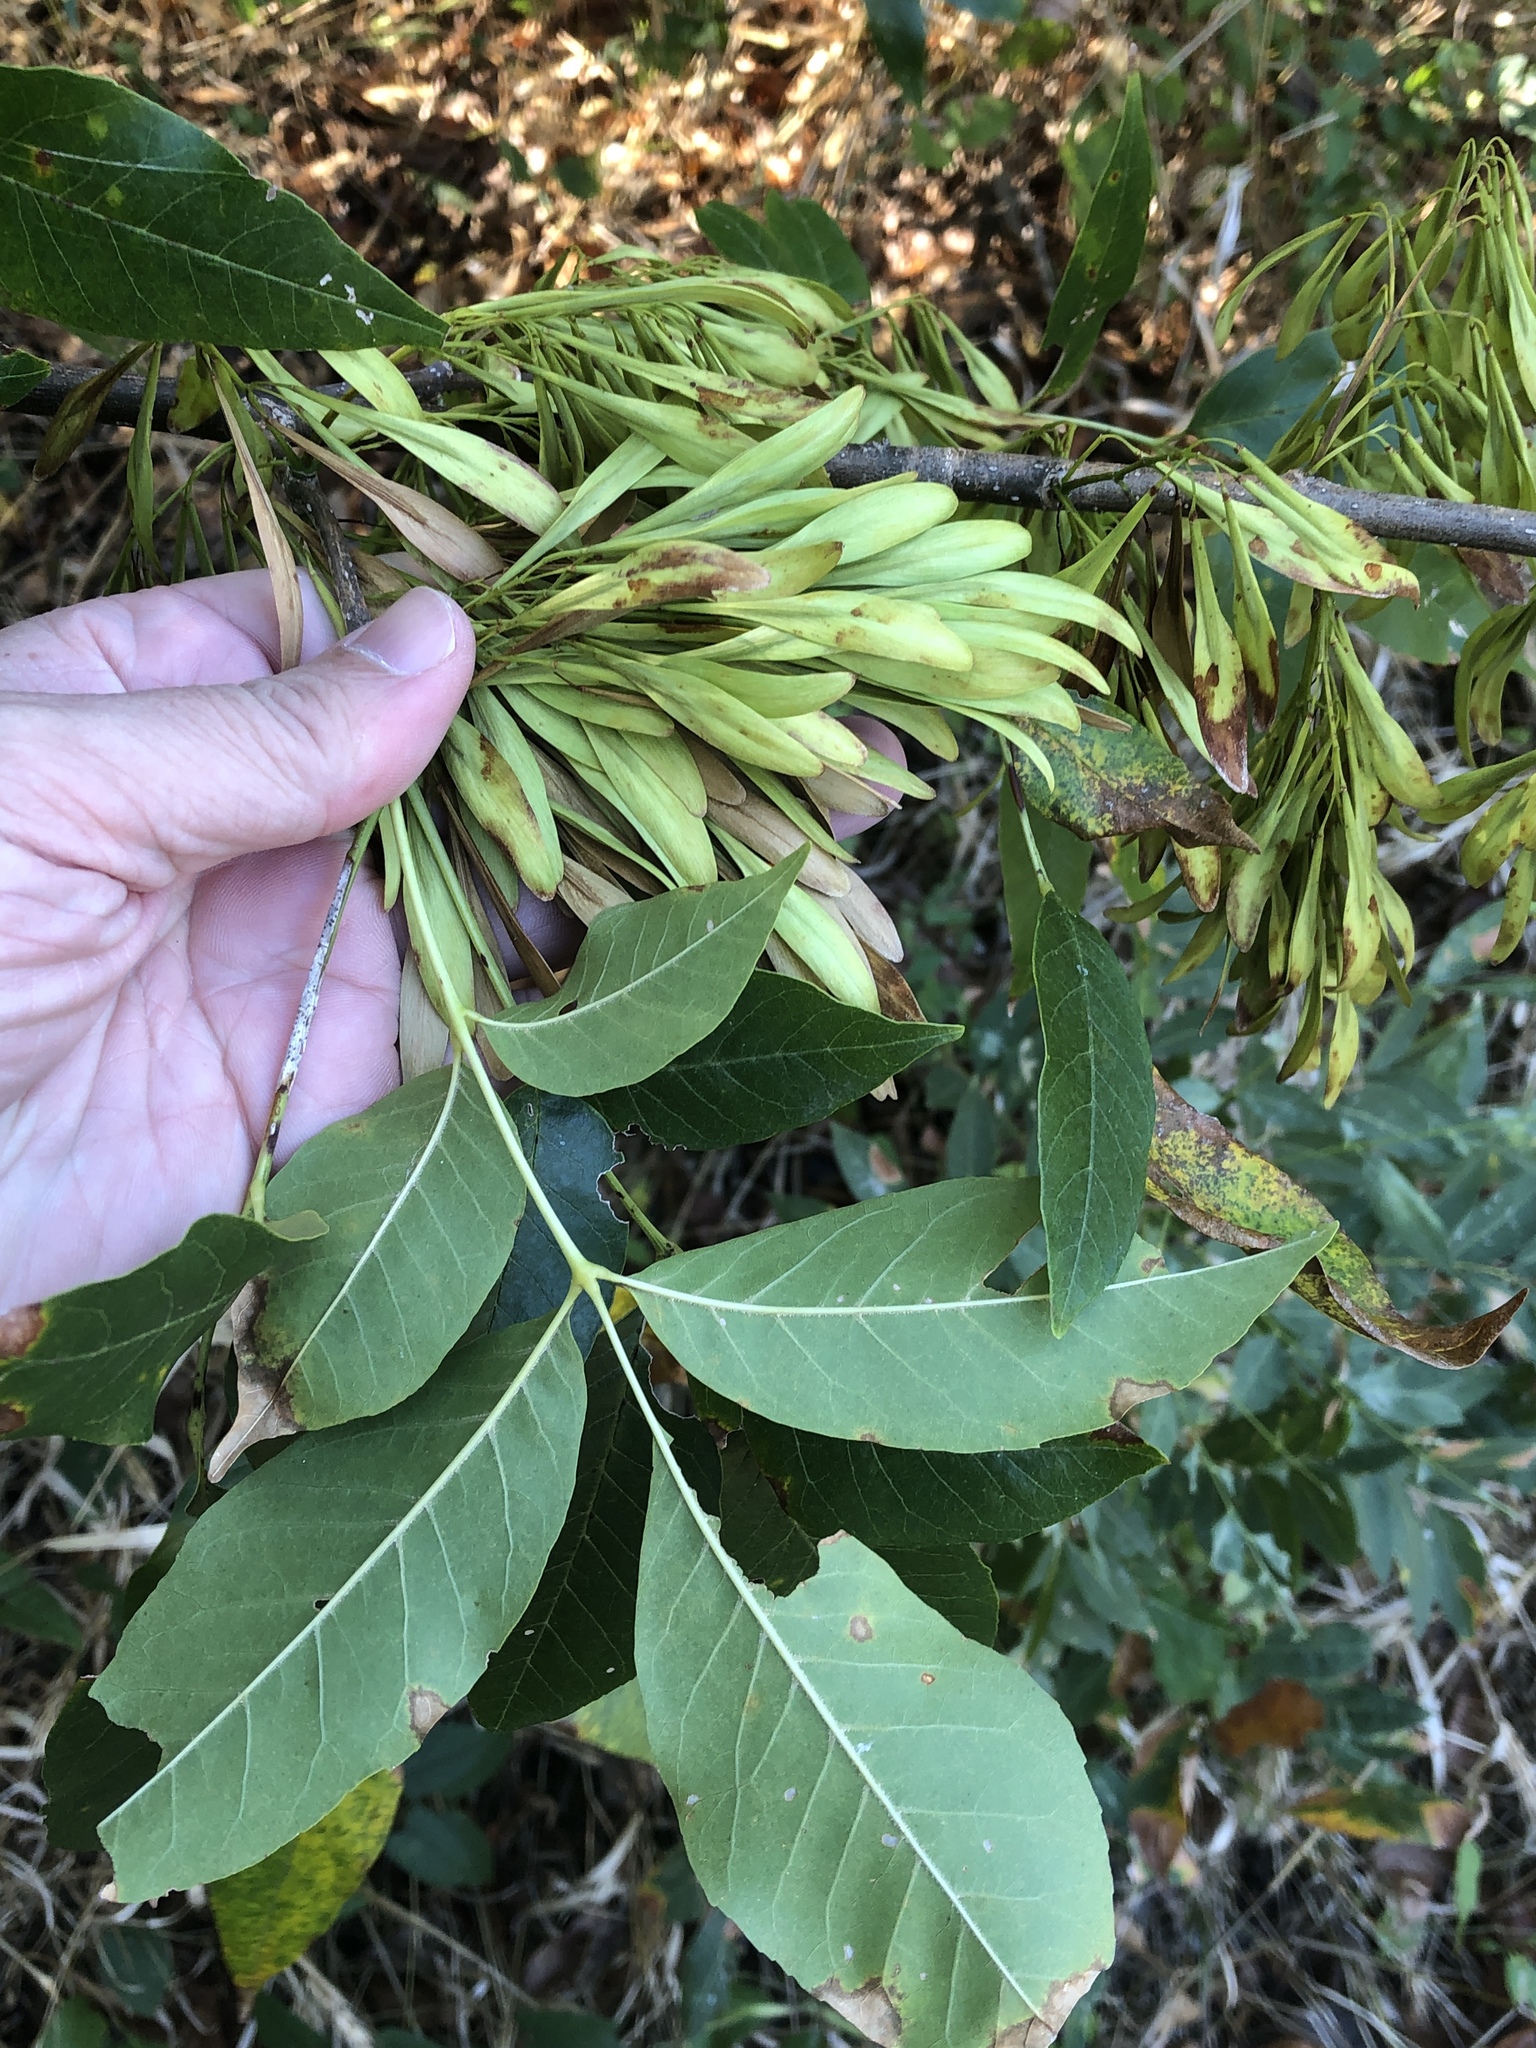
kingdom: Plantae
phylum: Tracheophyta
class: Magnoliopsida
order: Lamiales
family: Oleaceae
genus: Fraxinus
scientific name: Fraxinus pennsylvanica
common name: Green ash
